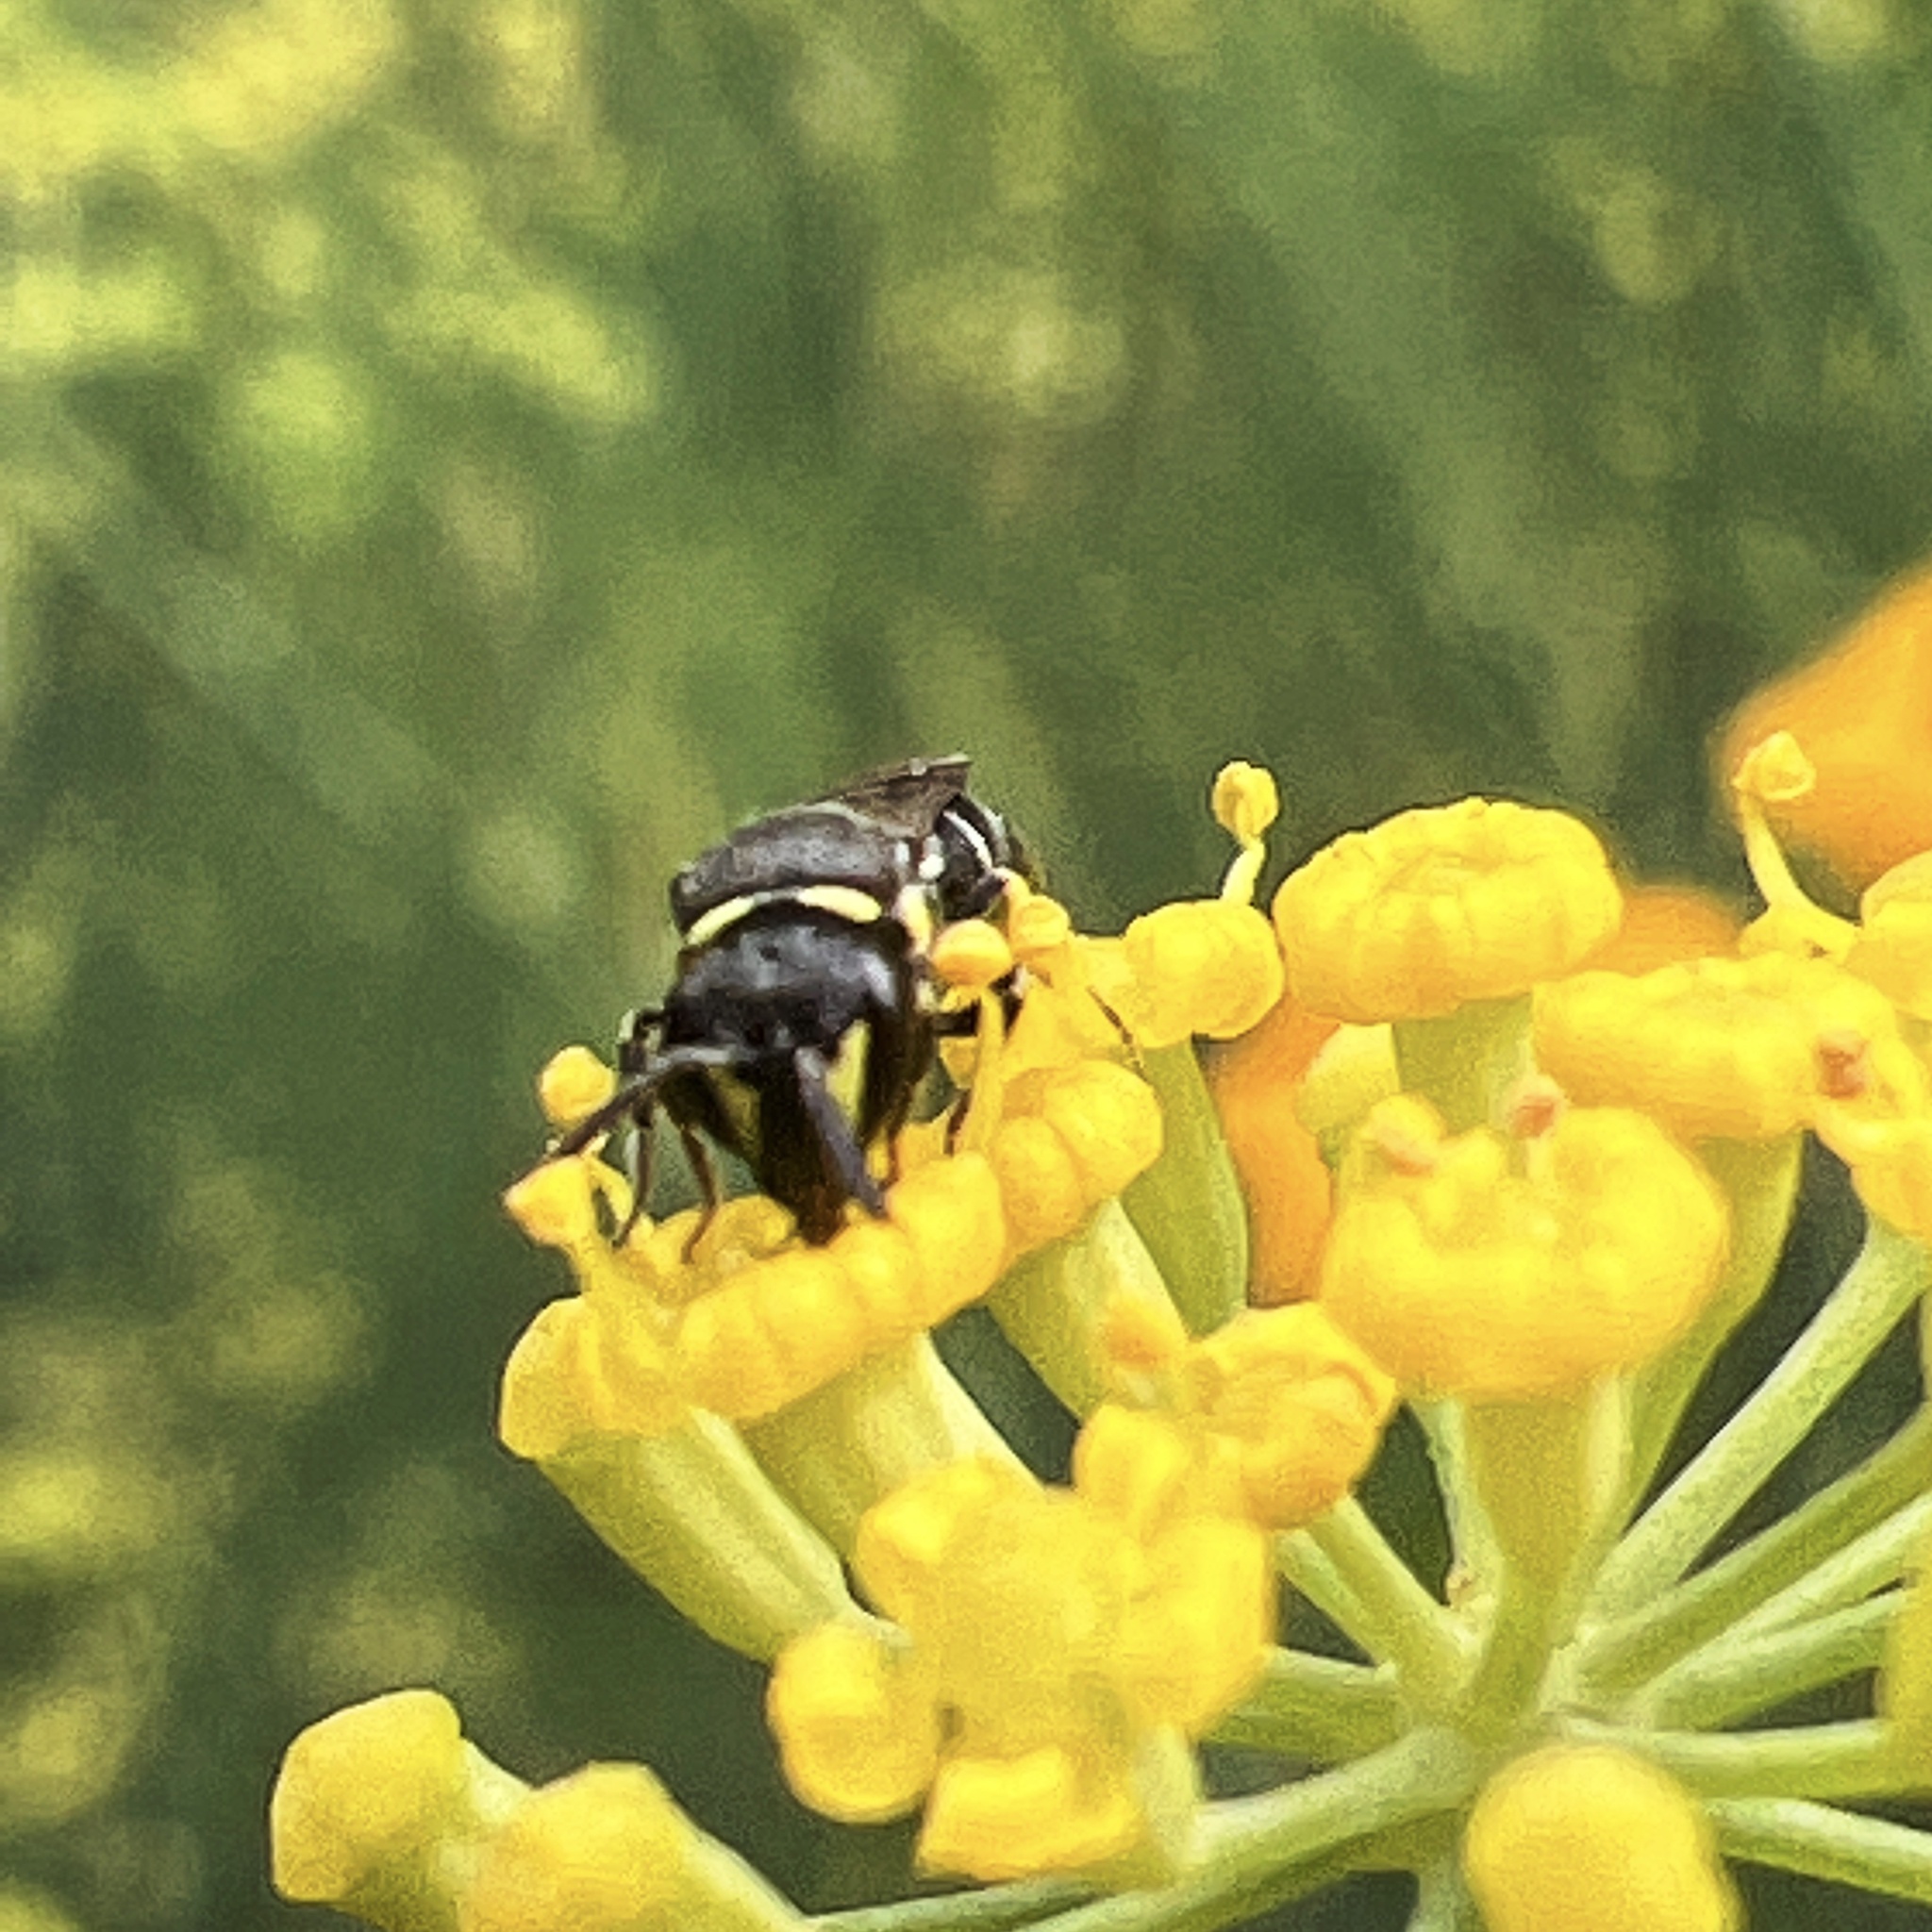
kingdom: Animalia
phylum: Arthropoda
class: Insecta
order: Hymenoptera
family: Colletidae
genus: Hylaeus
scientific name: Hylaeus modestus
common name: Yellow-faced bee
